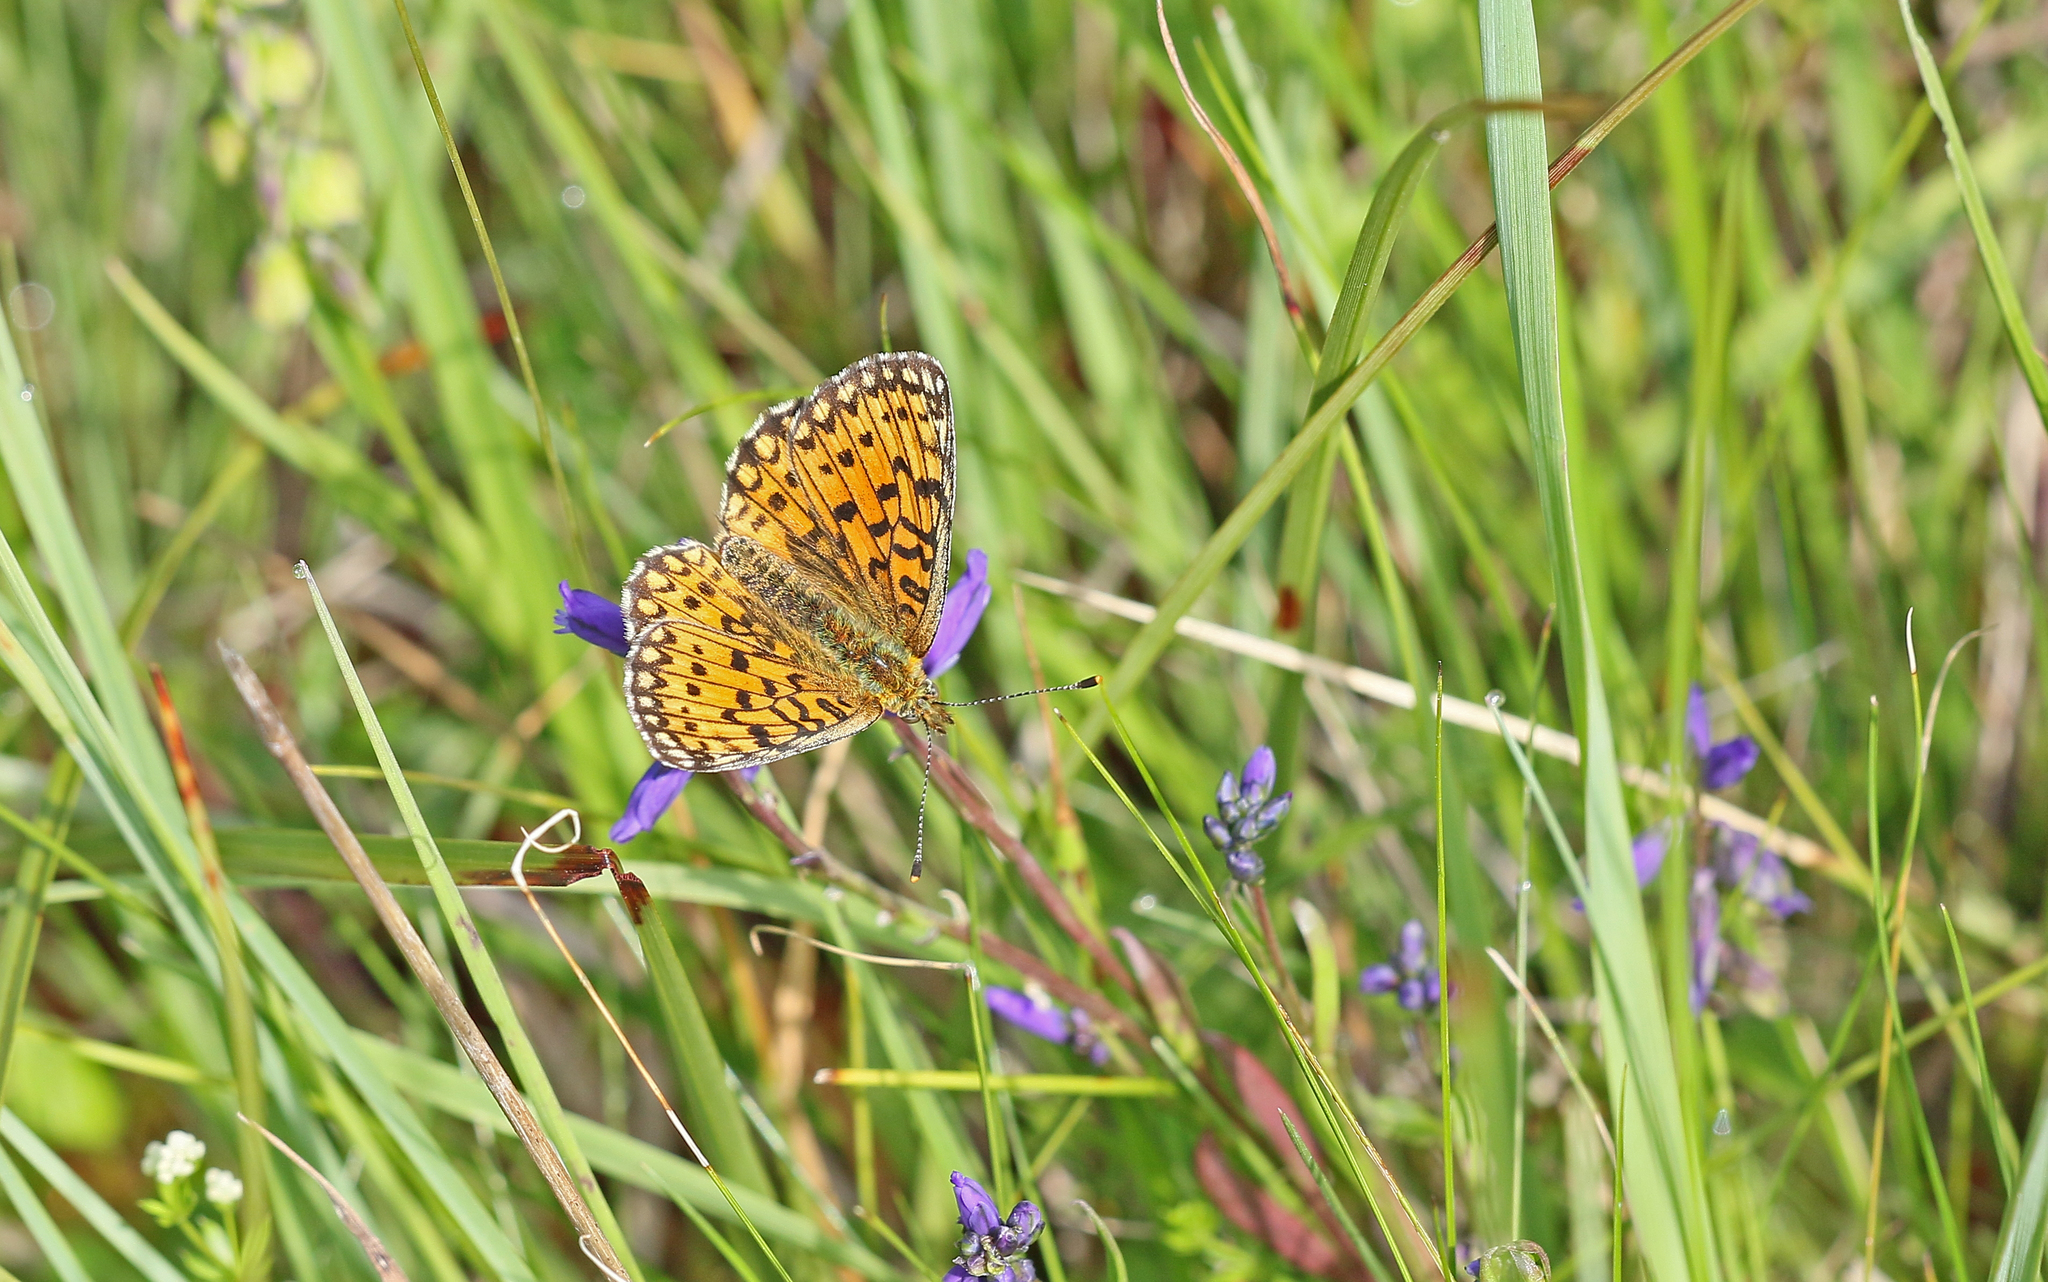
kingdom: Animalia
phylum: Arthropoda
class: Insecta
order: Lepidoptera
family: Nymphalidae
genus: Boloria
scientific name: Boloria selene
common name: Small pearl-bordered fritillary
